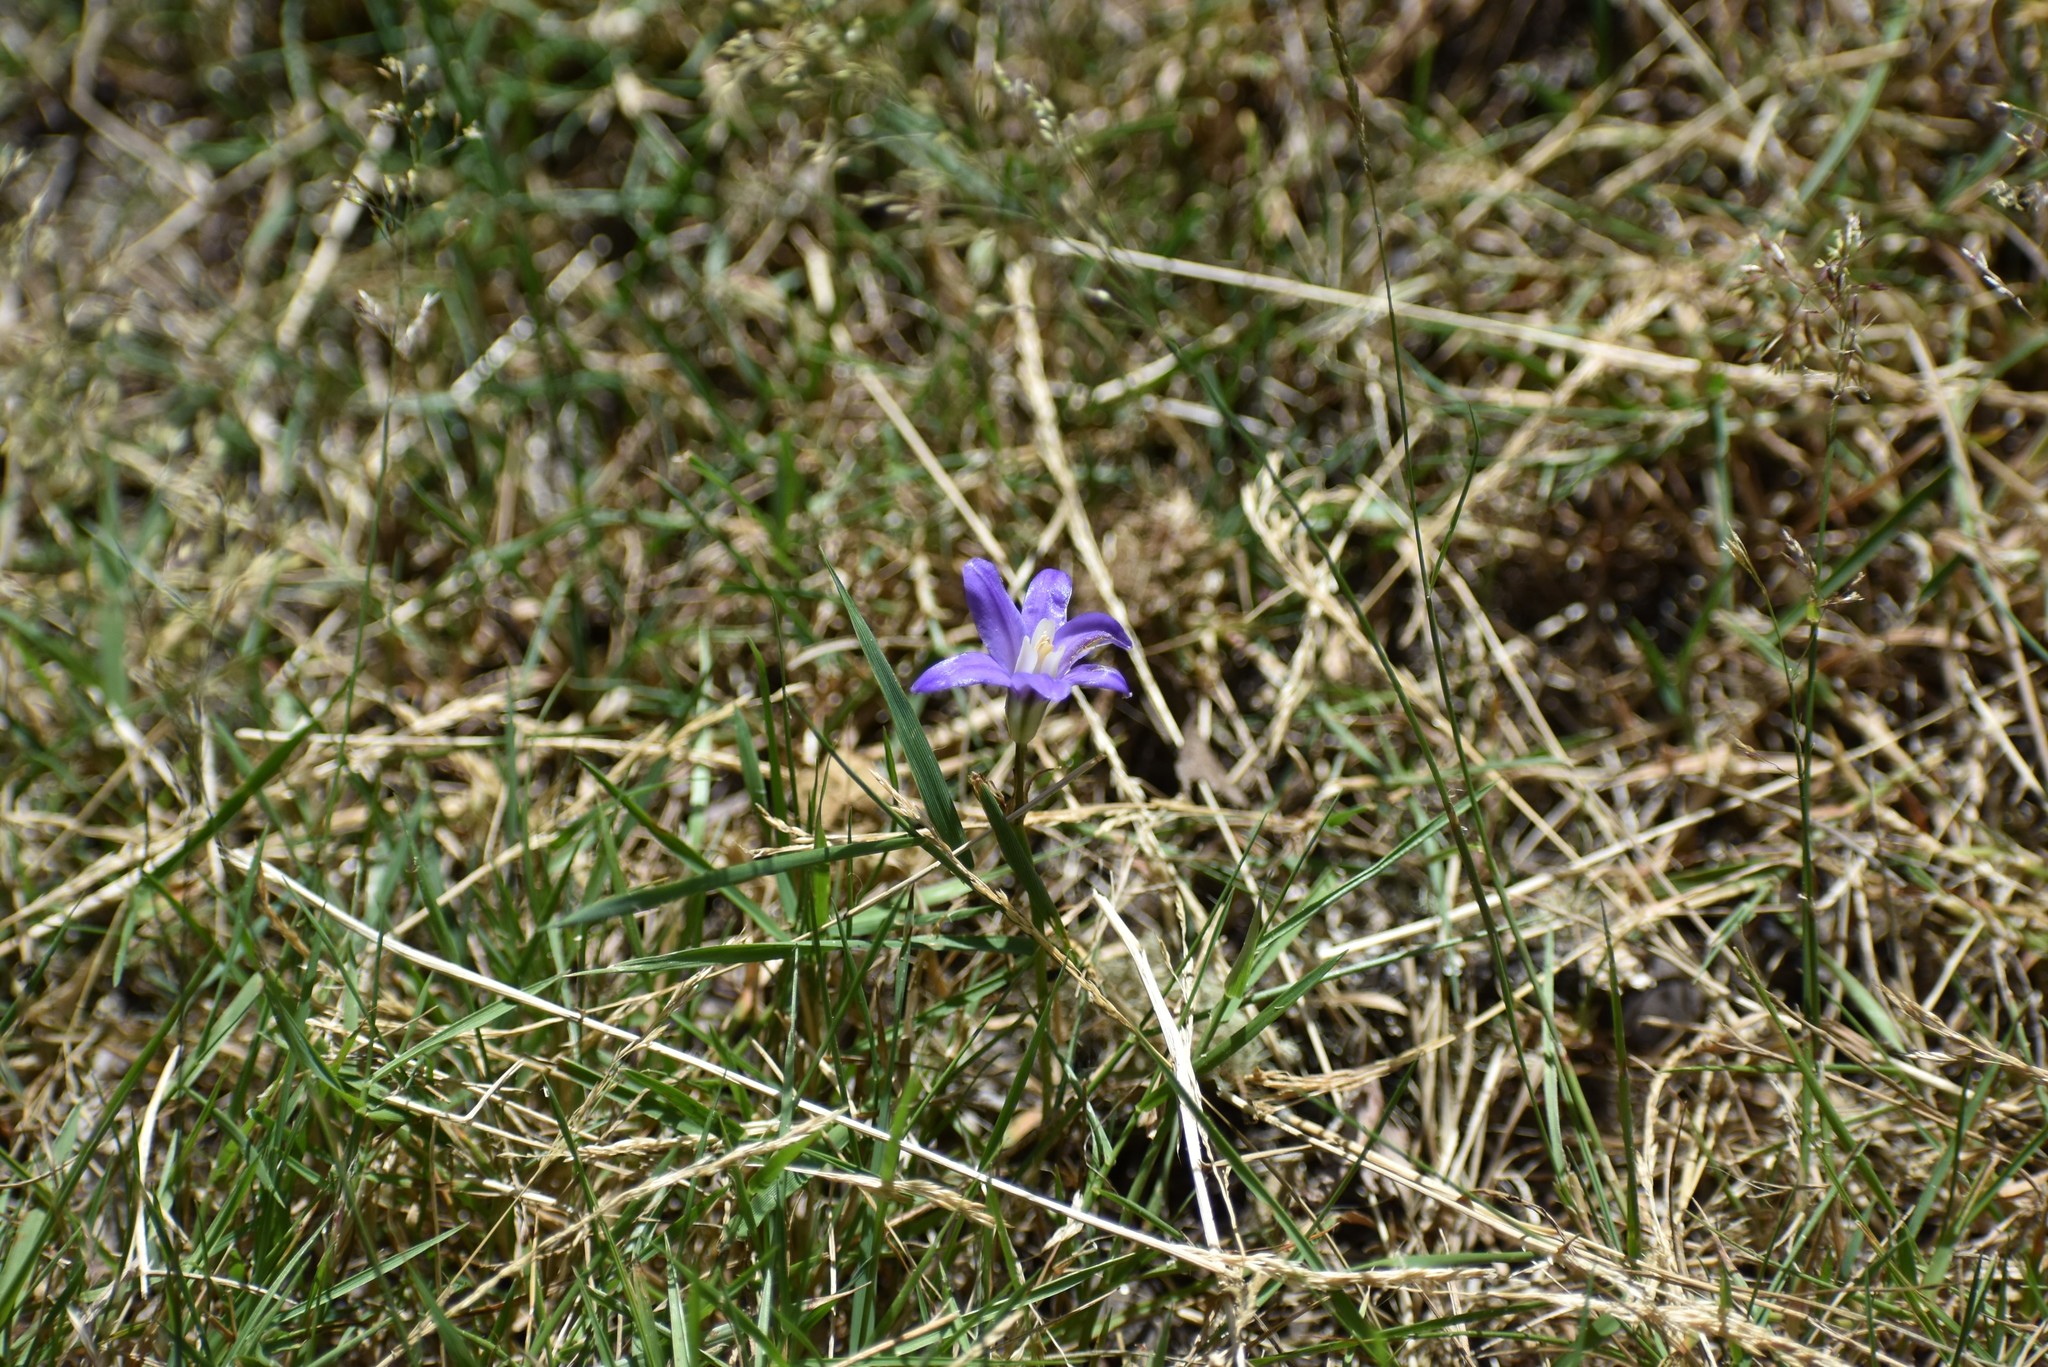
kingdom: Plantae
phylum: Tracheophyta
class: Liliopsida
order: Asparagales
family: Asparagaceae
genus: Brodiaea
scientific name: Brodiaea coronaria
